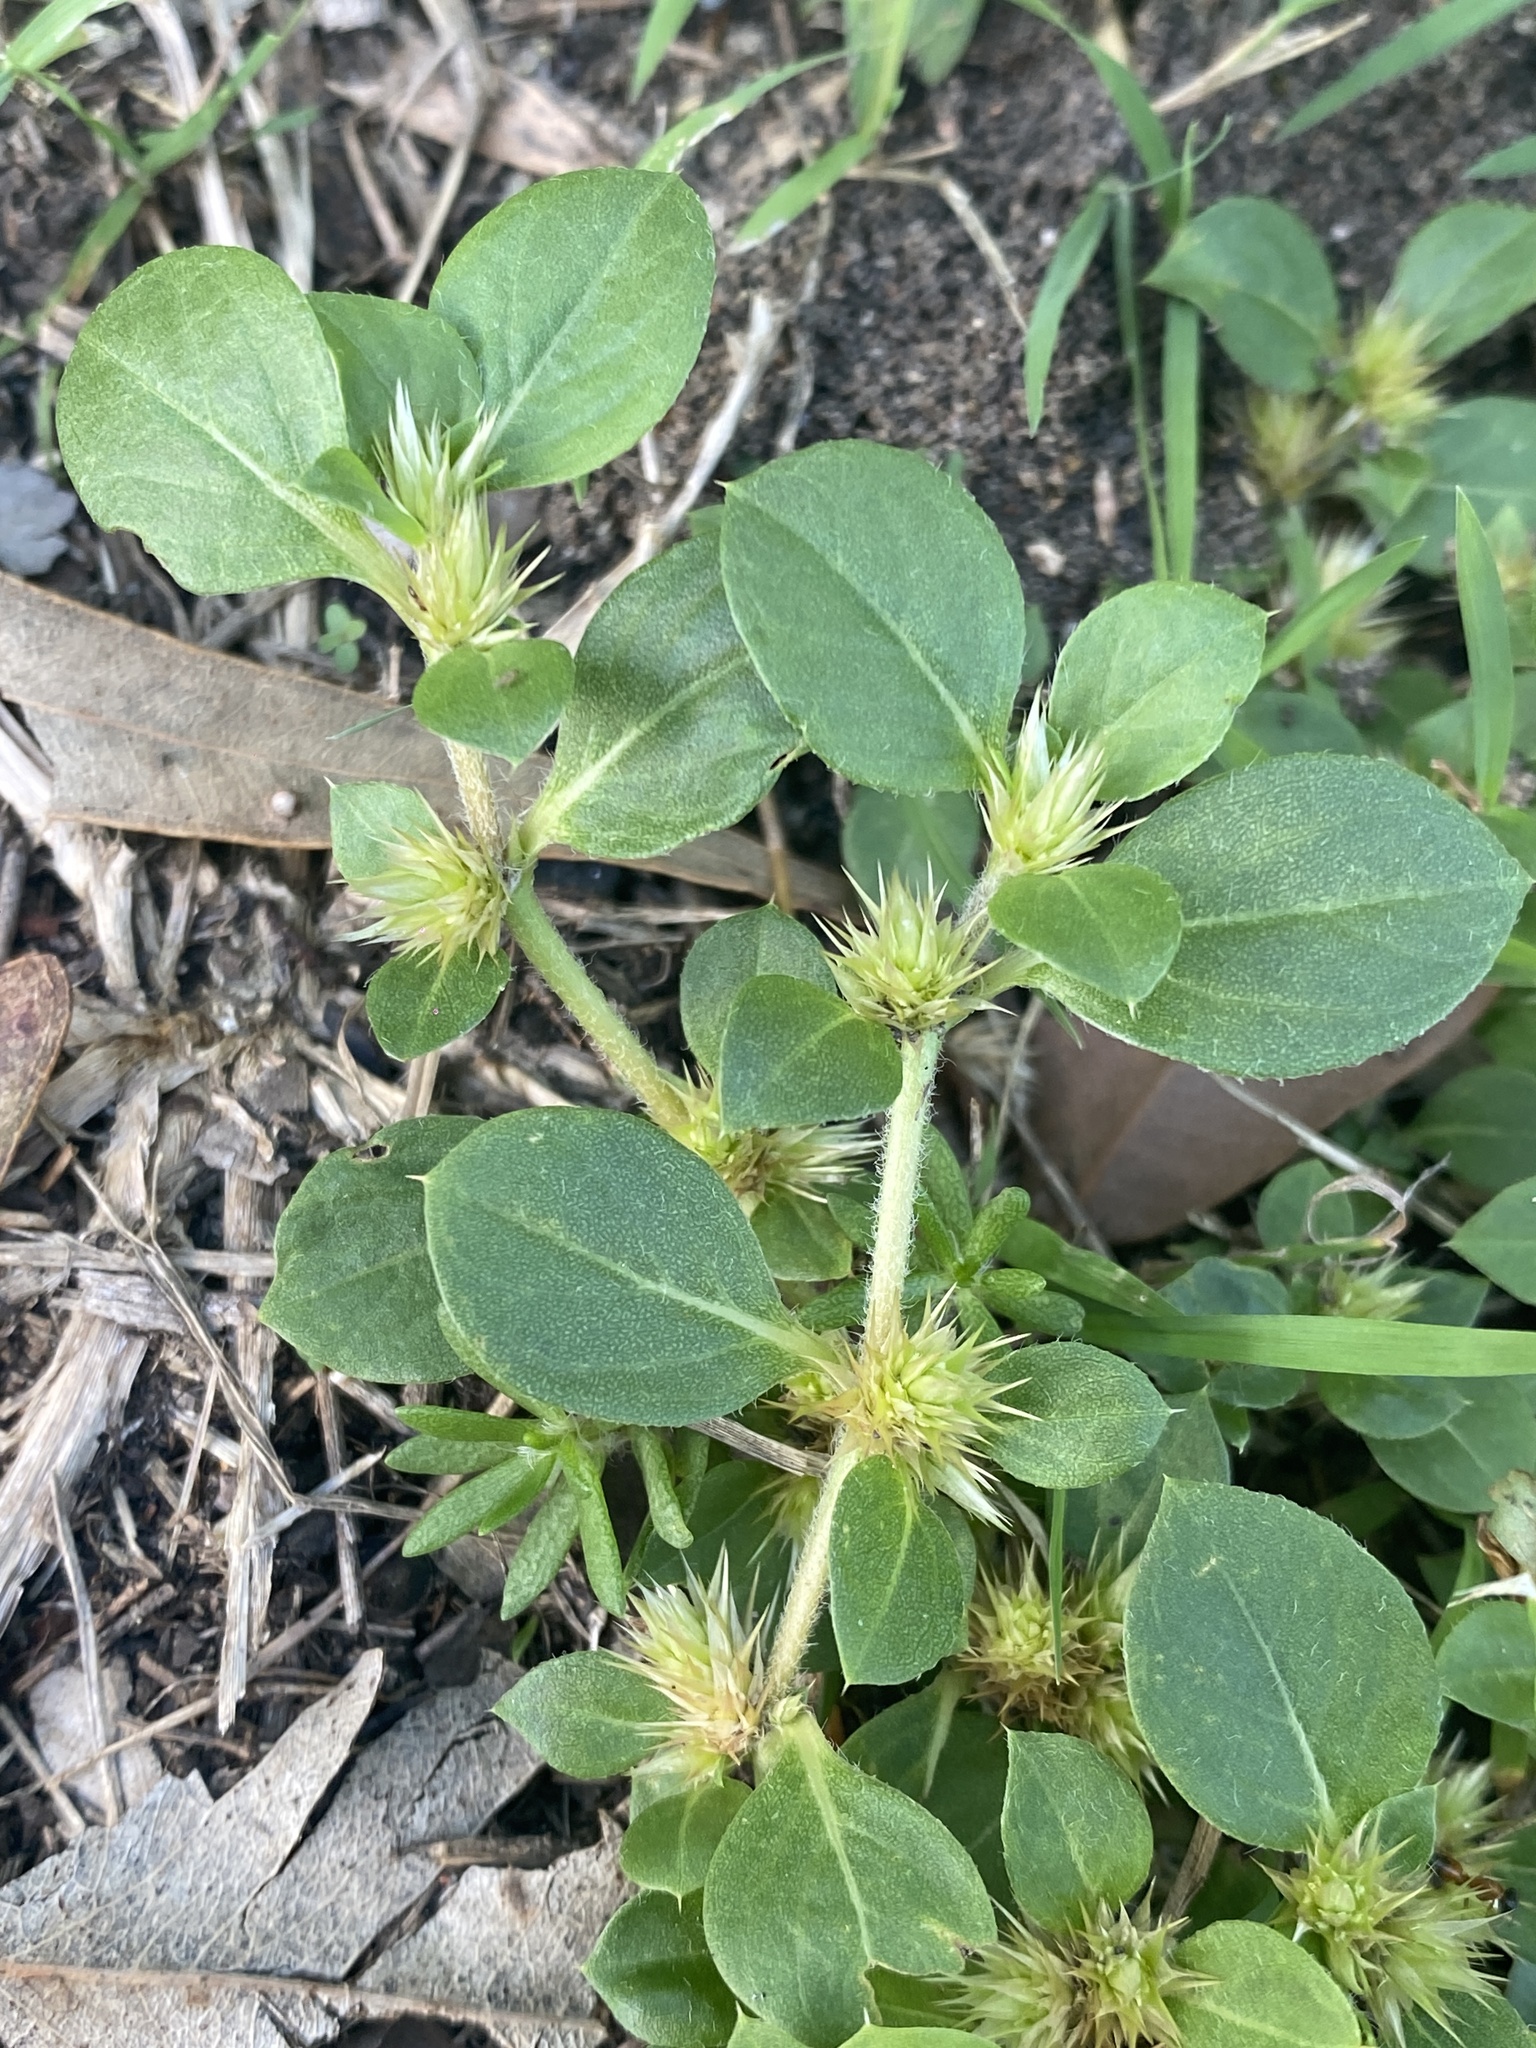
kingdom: Plantae
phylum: Tracheophyta
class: Magnoliopsida
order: Caryophyllales
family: Amaranthaceae
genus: Alternanthera
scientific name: Alternanthera pungens
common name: Khakiweed
